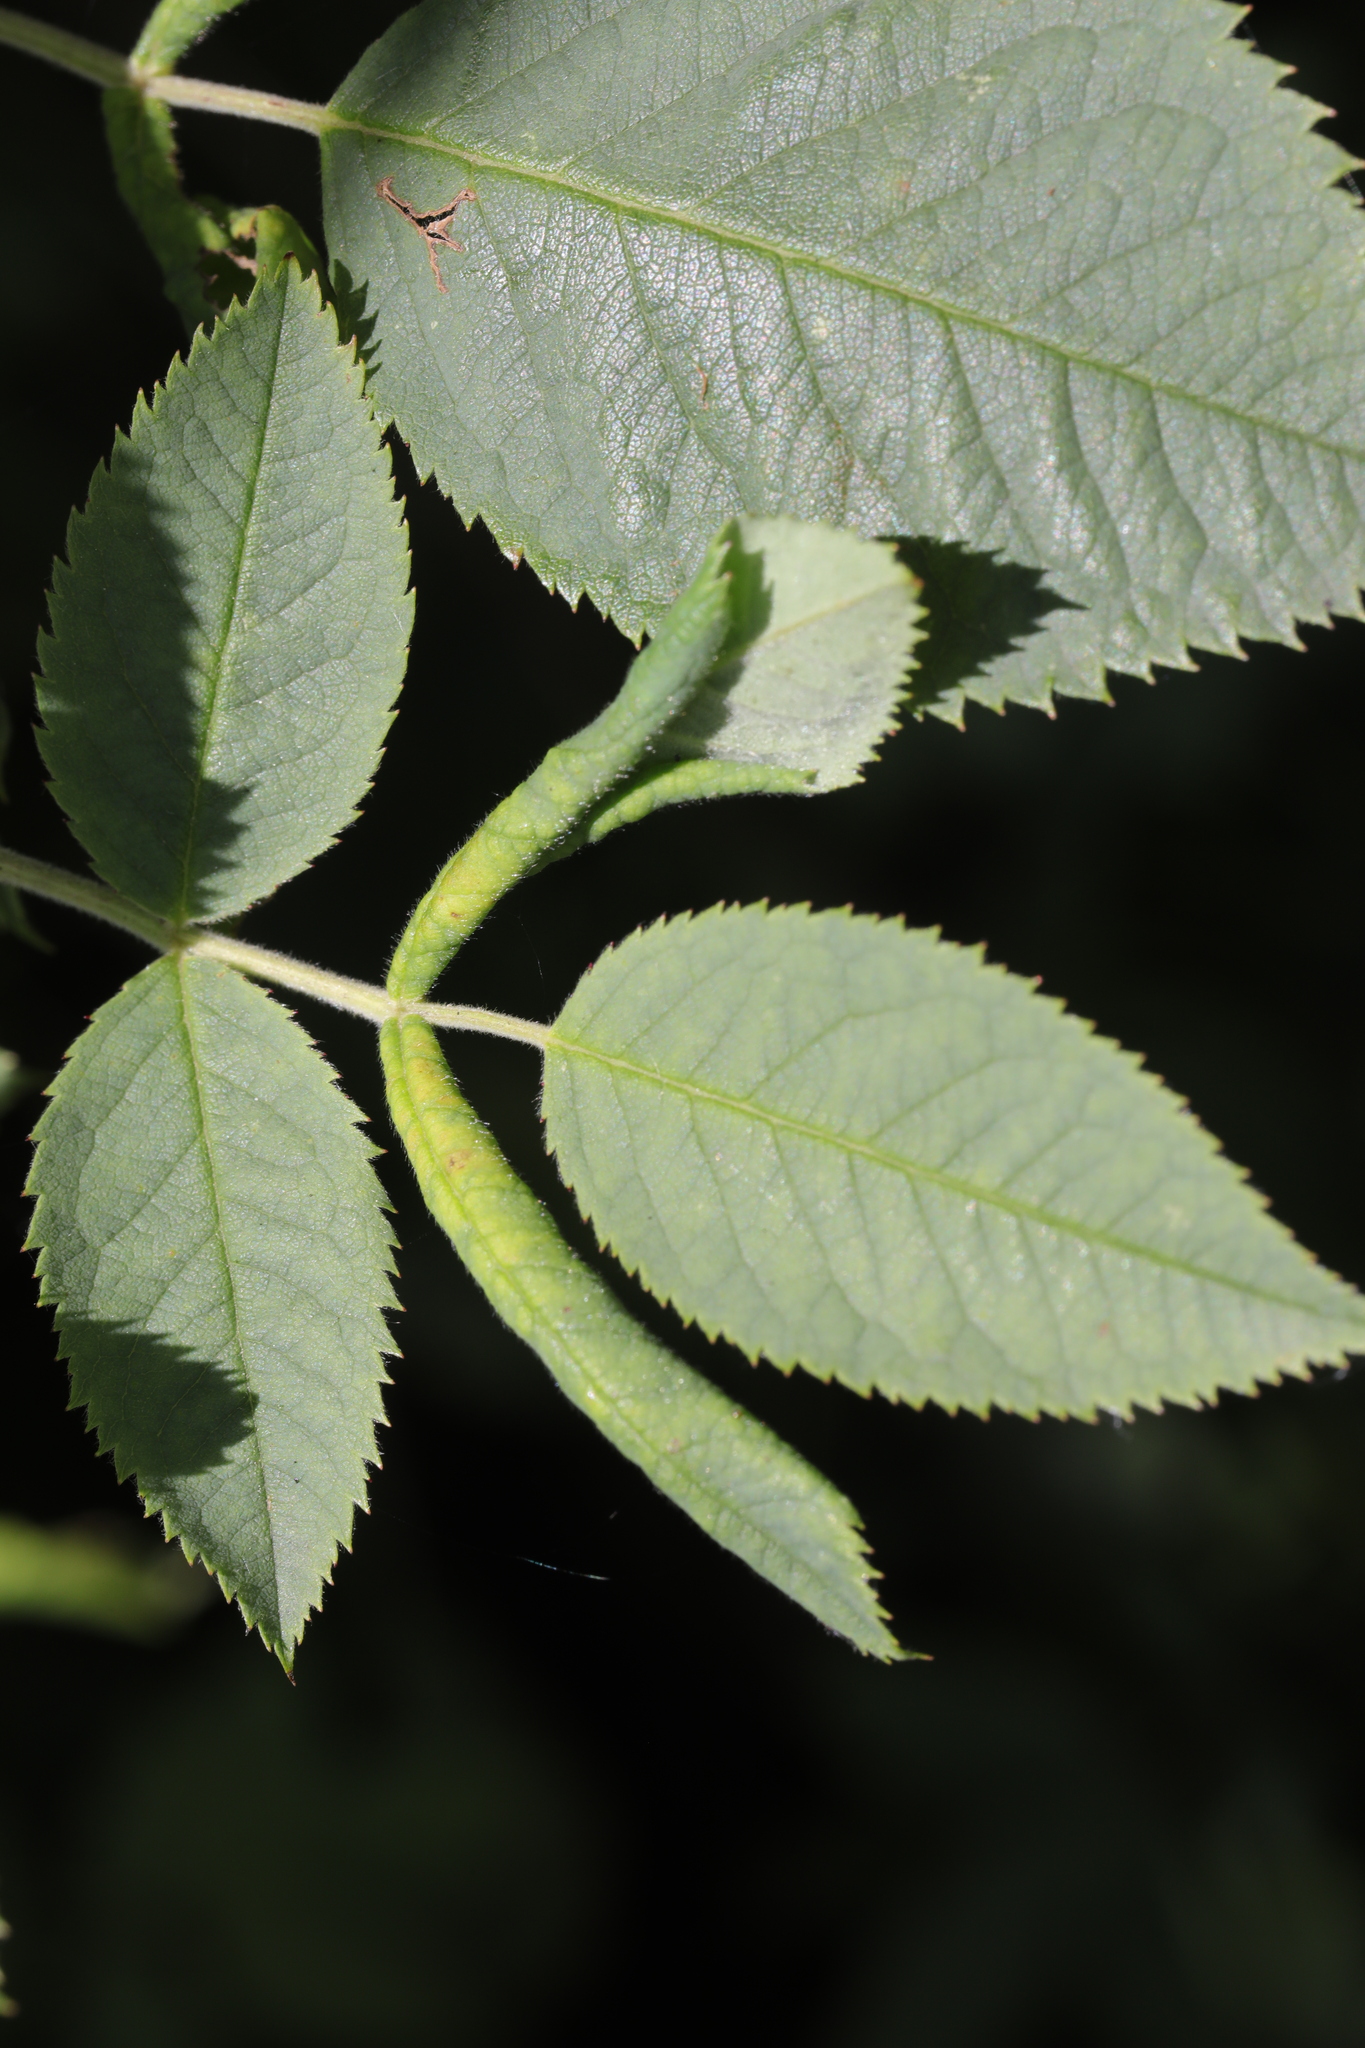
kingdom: Animalia
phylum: Arthropoda
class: Insecta
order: Hymenoptera
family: Tenthredinidae
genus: Blennocampa
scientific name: Blennocampa phyllocolpa
